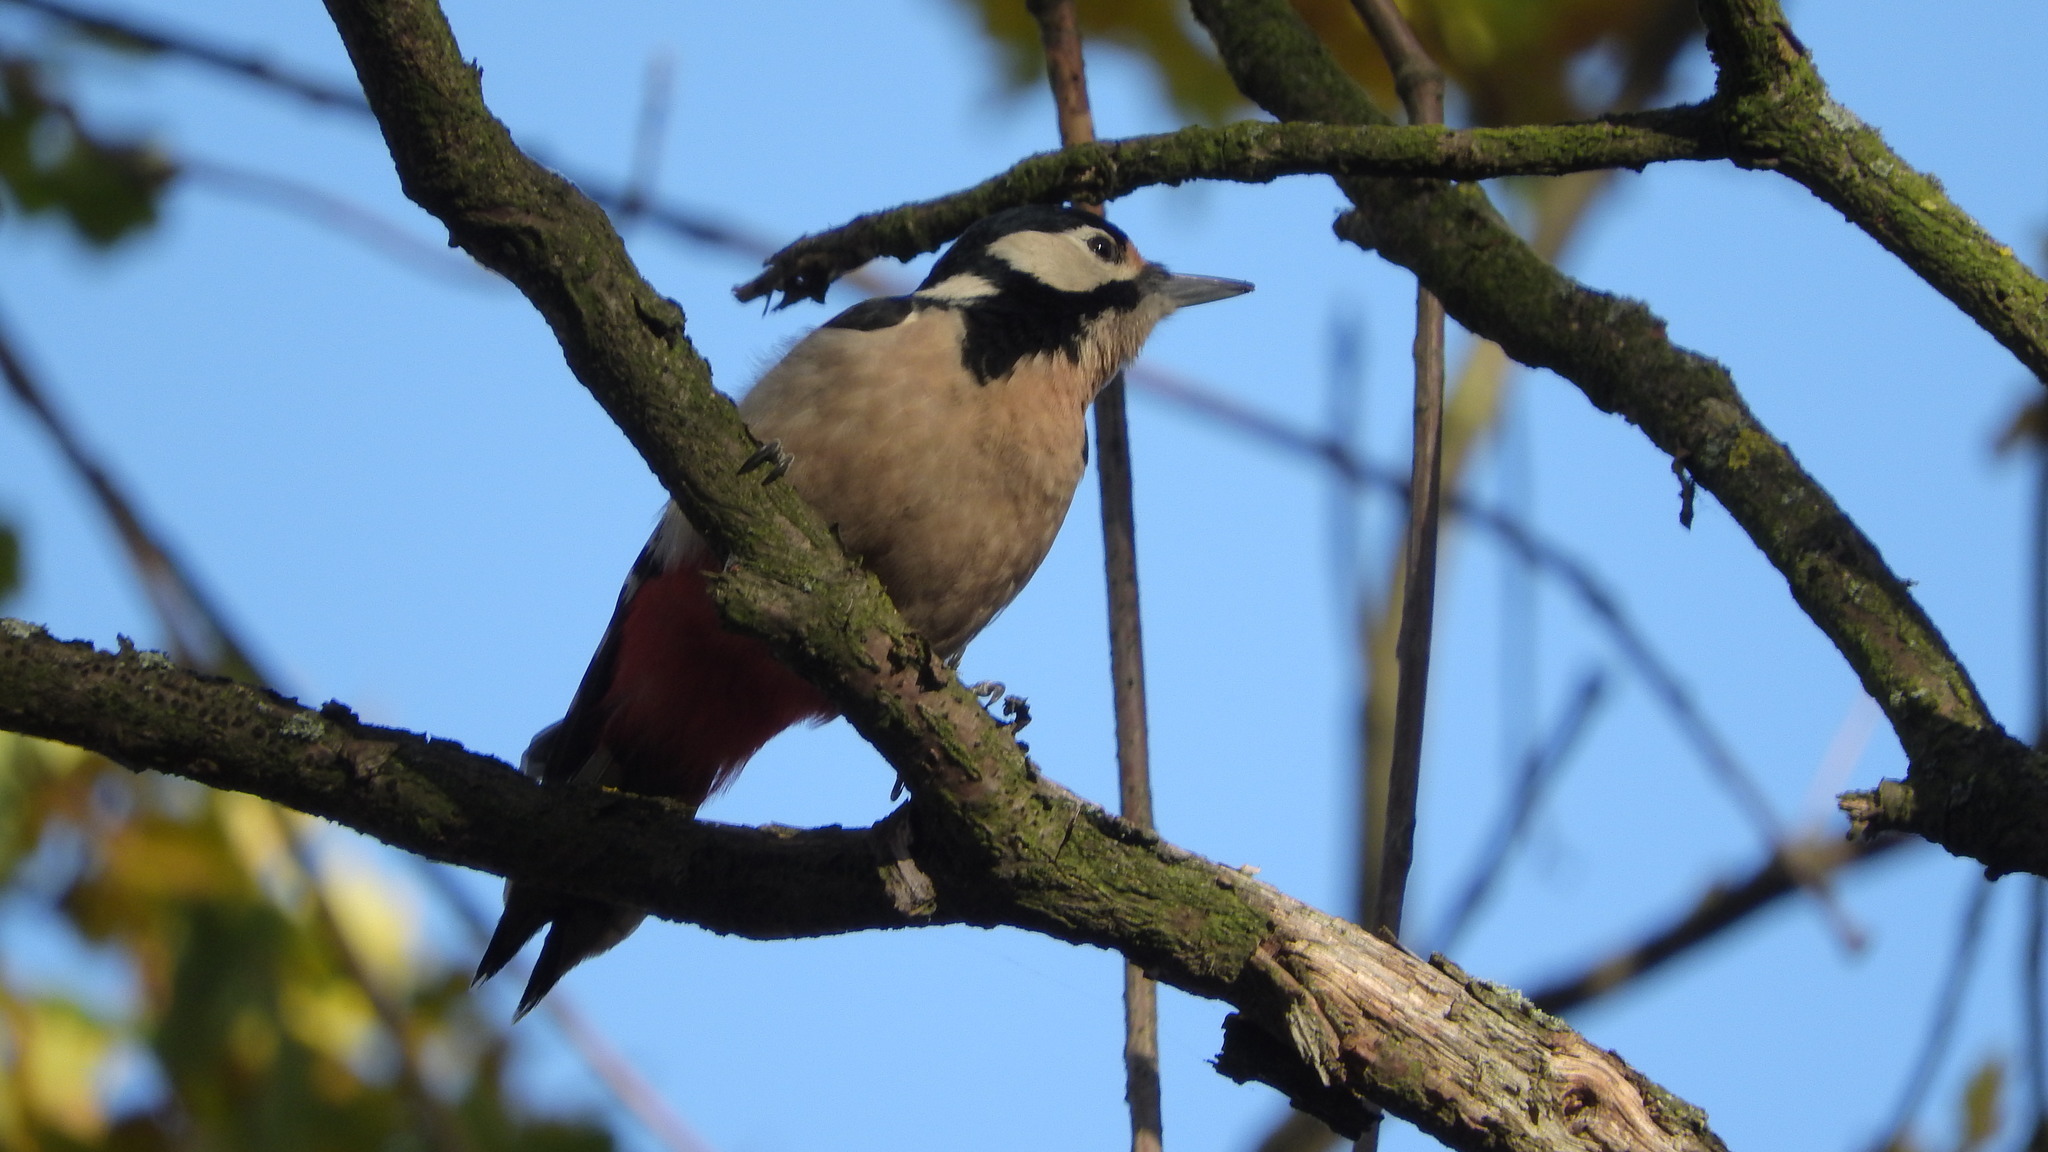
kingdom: Animalia
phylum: Chordata
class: Aves
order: Piciformes
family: Picidae
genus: Dendrocopos
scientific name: Dendrocopos major
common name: Great spotted woodpecker
